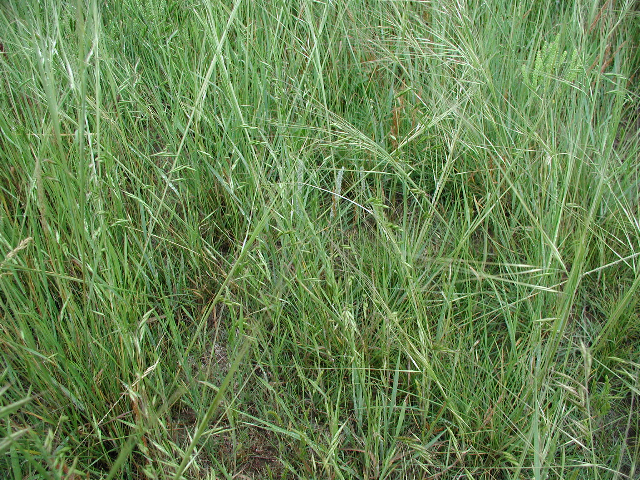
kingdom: Plantae
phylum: Tracheophyta
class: Liliopsida
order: Poales
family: Poaceae
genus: Bromus
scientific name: Bromus japonicus
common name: Japanese brome
